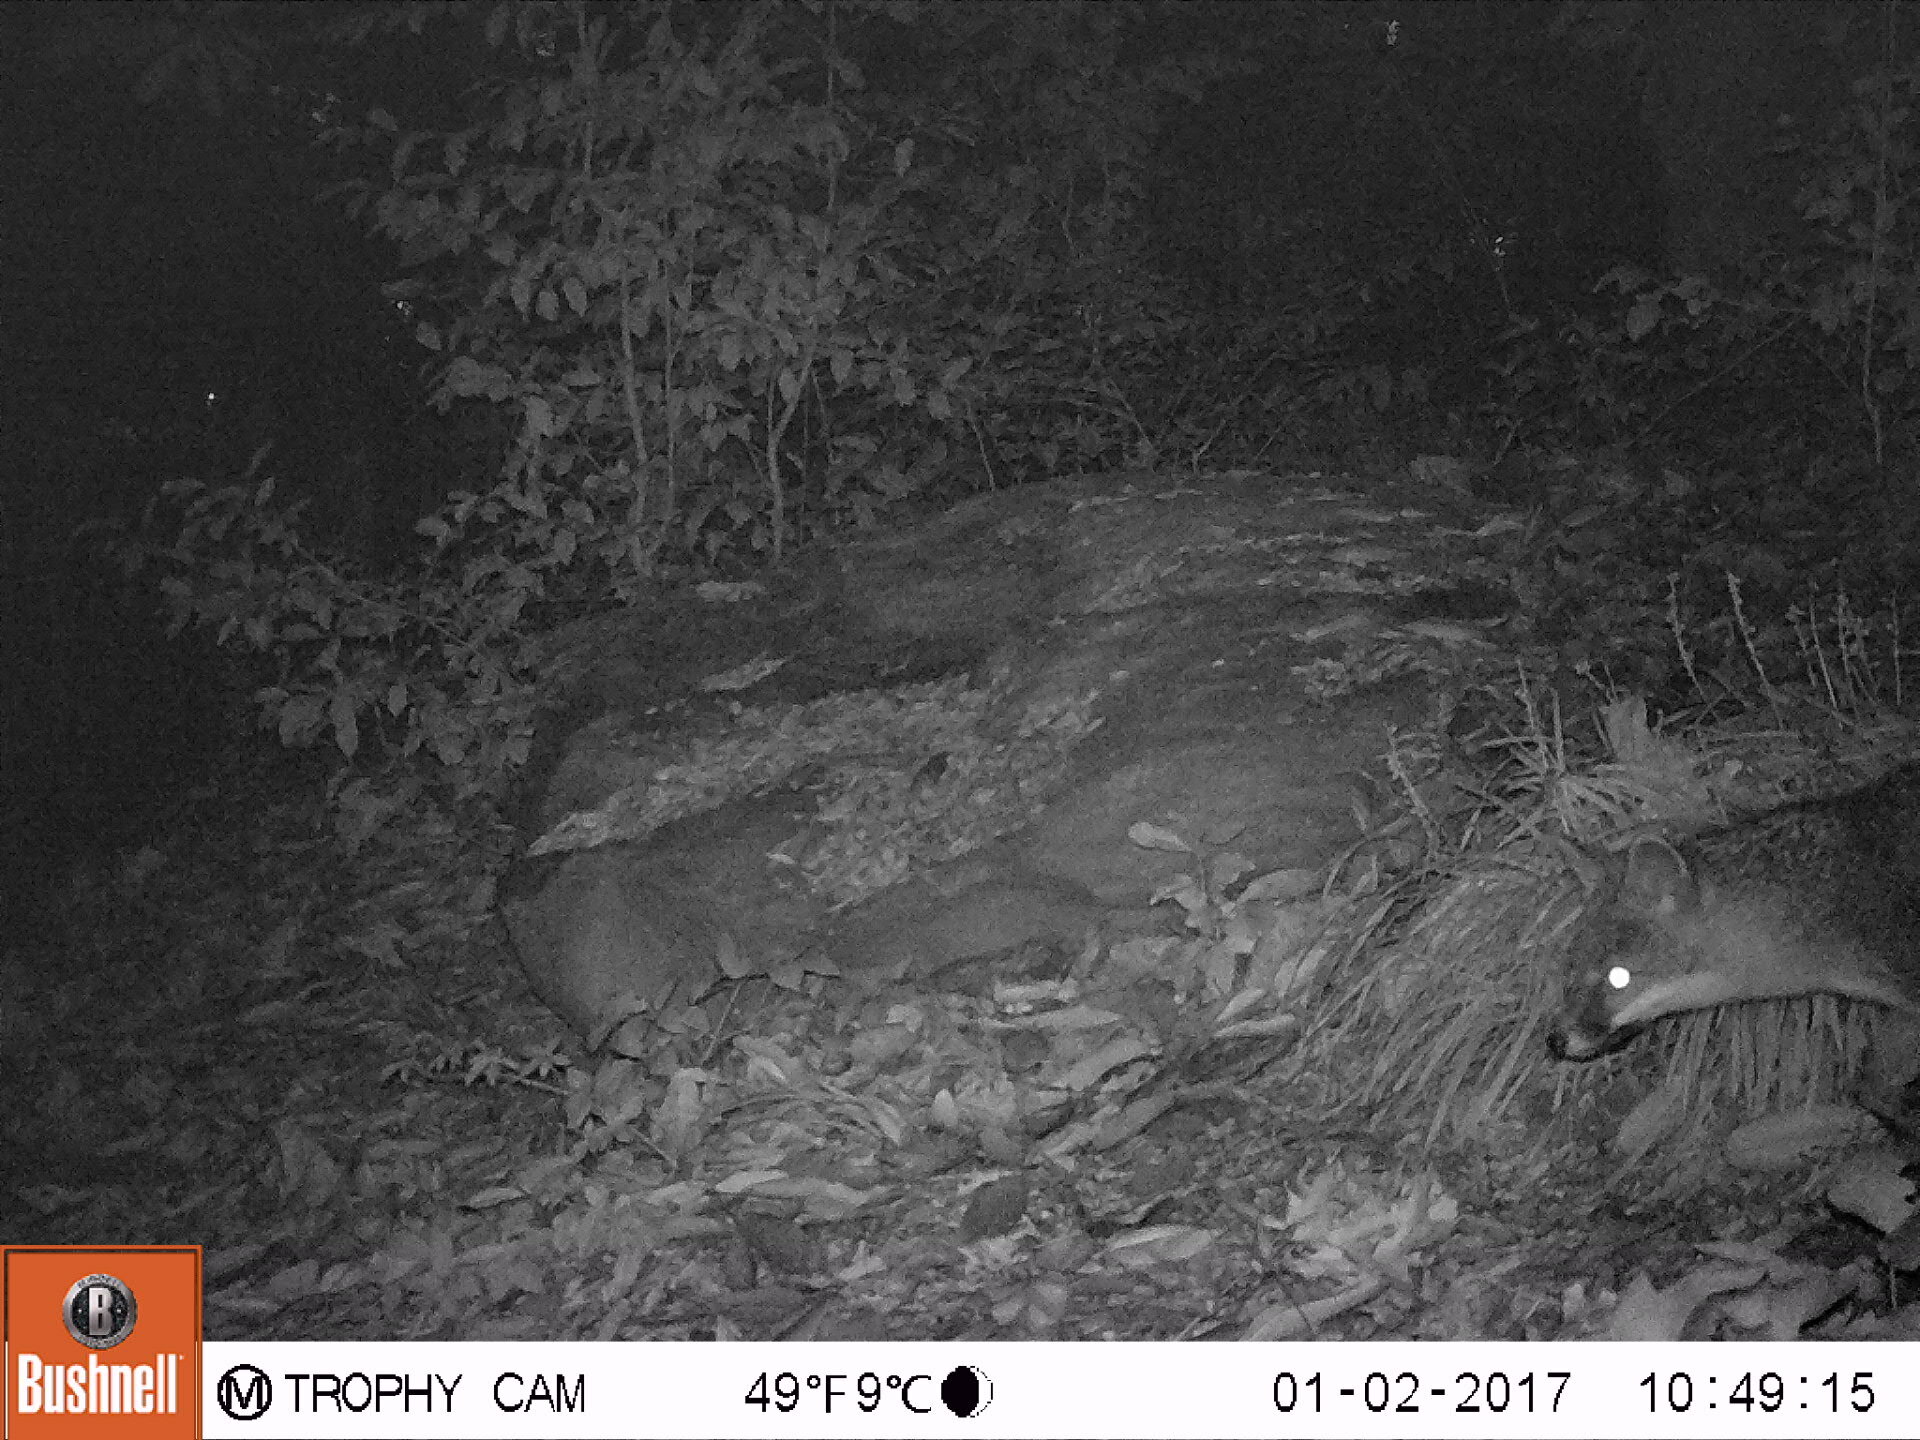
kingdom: Animalia
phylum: Chordata
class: Mammalia
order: Carnivora
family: Canidae
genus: Urocyon
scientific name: Urocyon cinereoargenteus
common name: Gray fox
